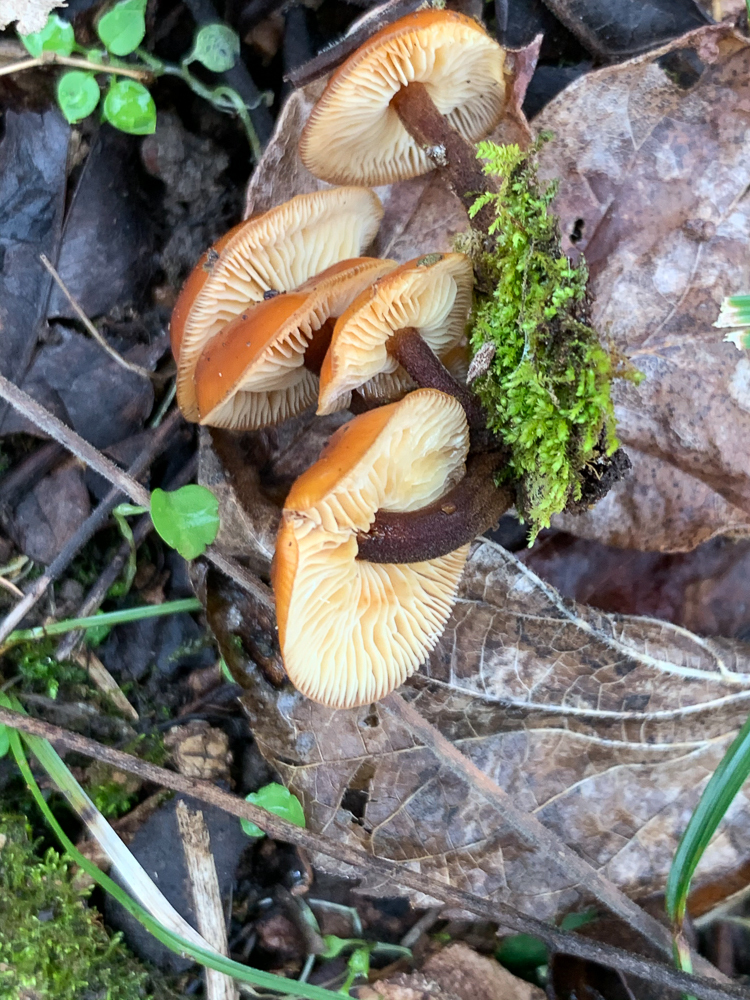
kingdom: Fungi
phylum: Basidiomycota
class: Agaricomycetes
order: Agaricales
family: Physalacriaceae
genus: Flammulina
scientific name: Flammulina velutipes
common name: Velvet shank
